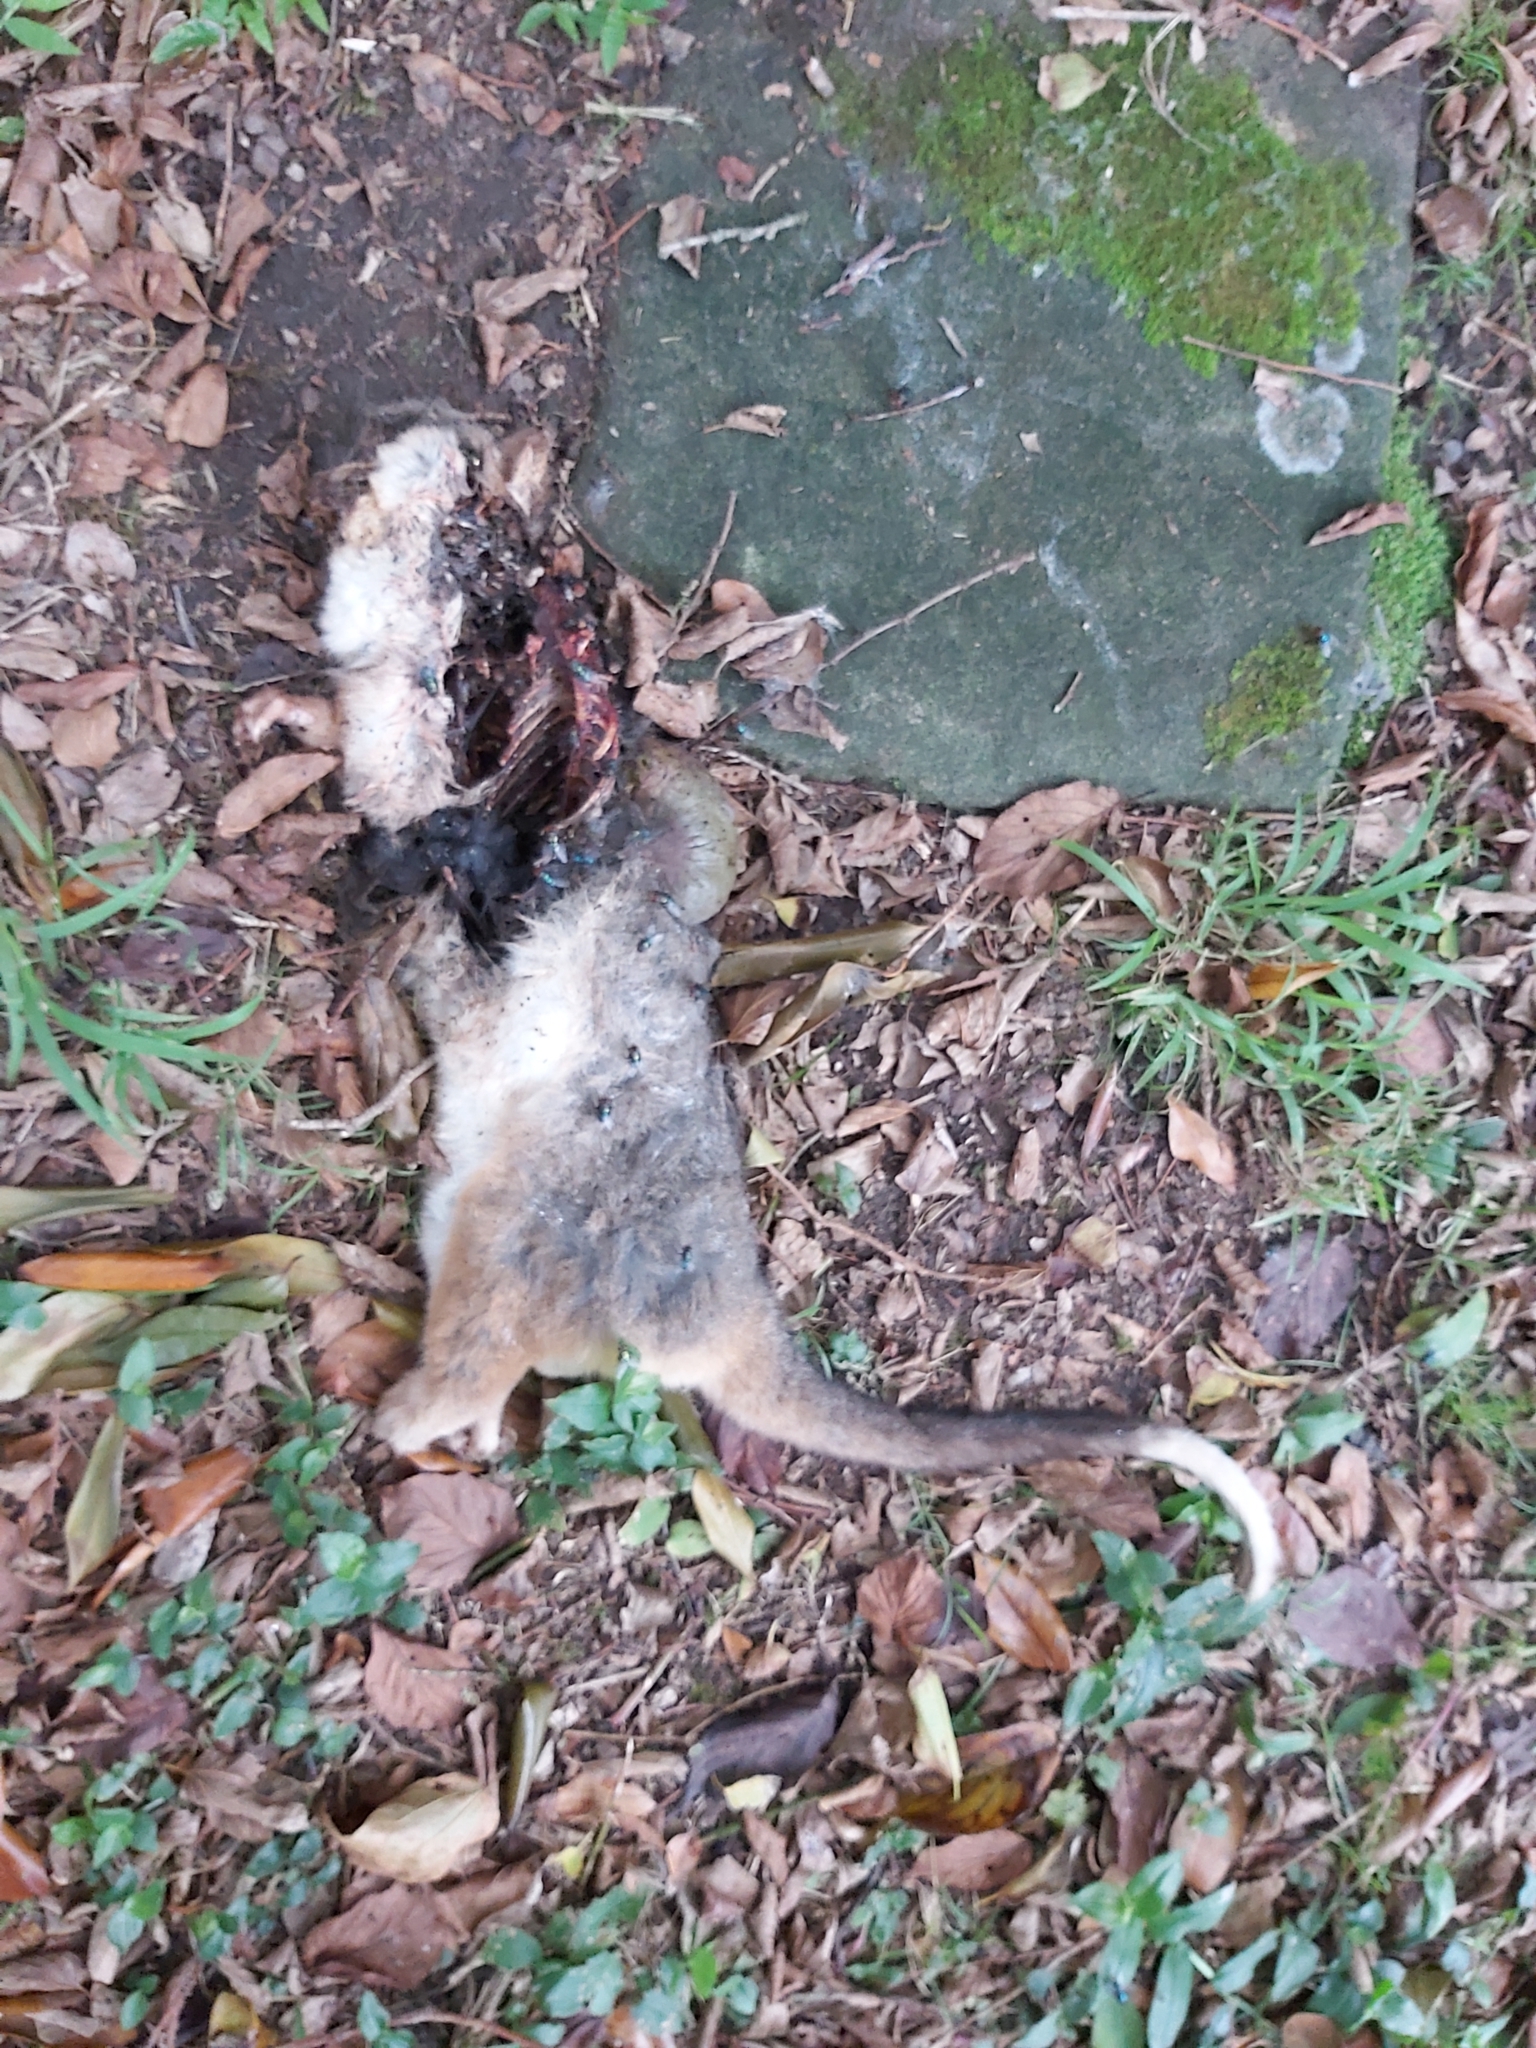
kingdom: Animalia
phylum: Chordata
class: Mammalia
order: Diprotodontia
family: Pseudocheiridae
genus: Pseudocheirus
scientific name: Pseudocheirus peregrinus
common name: Common ringtail possum
